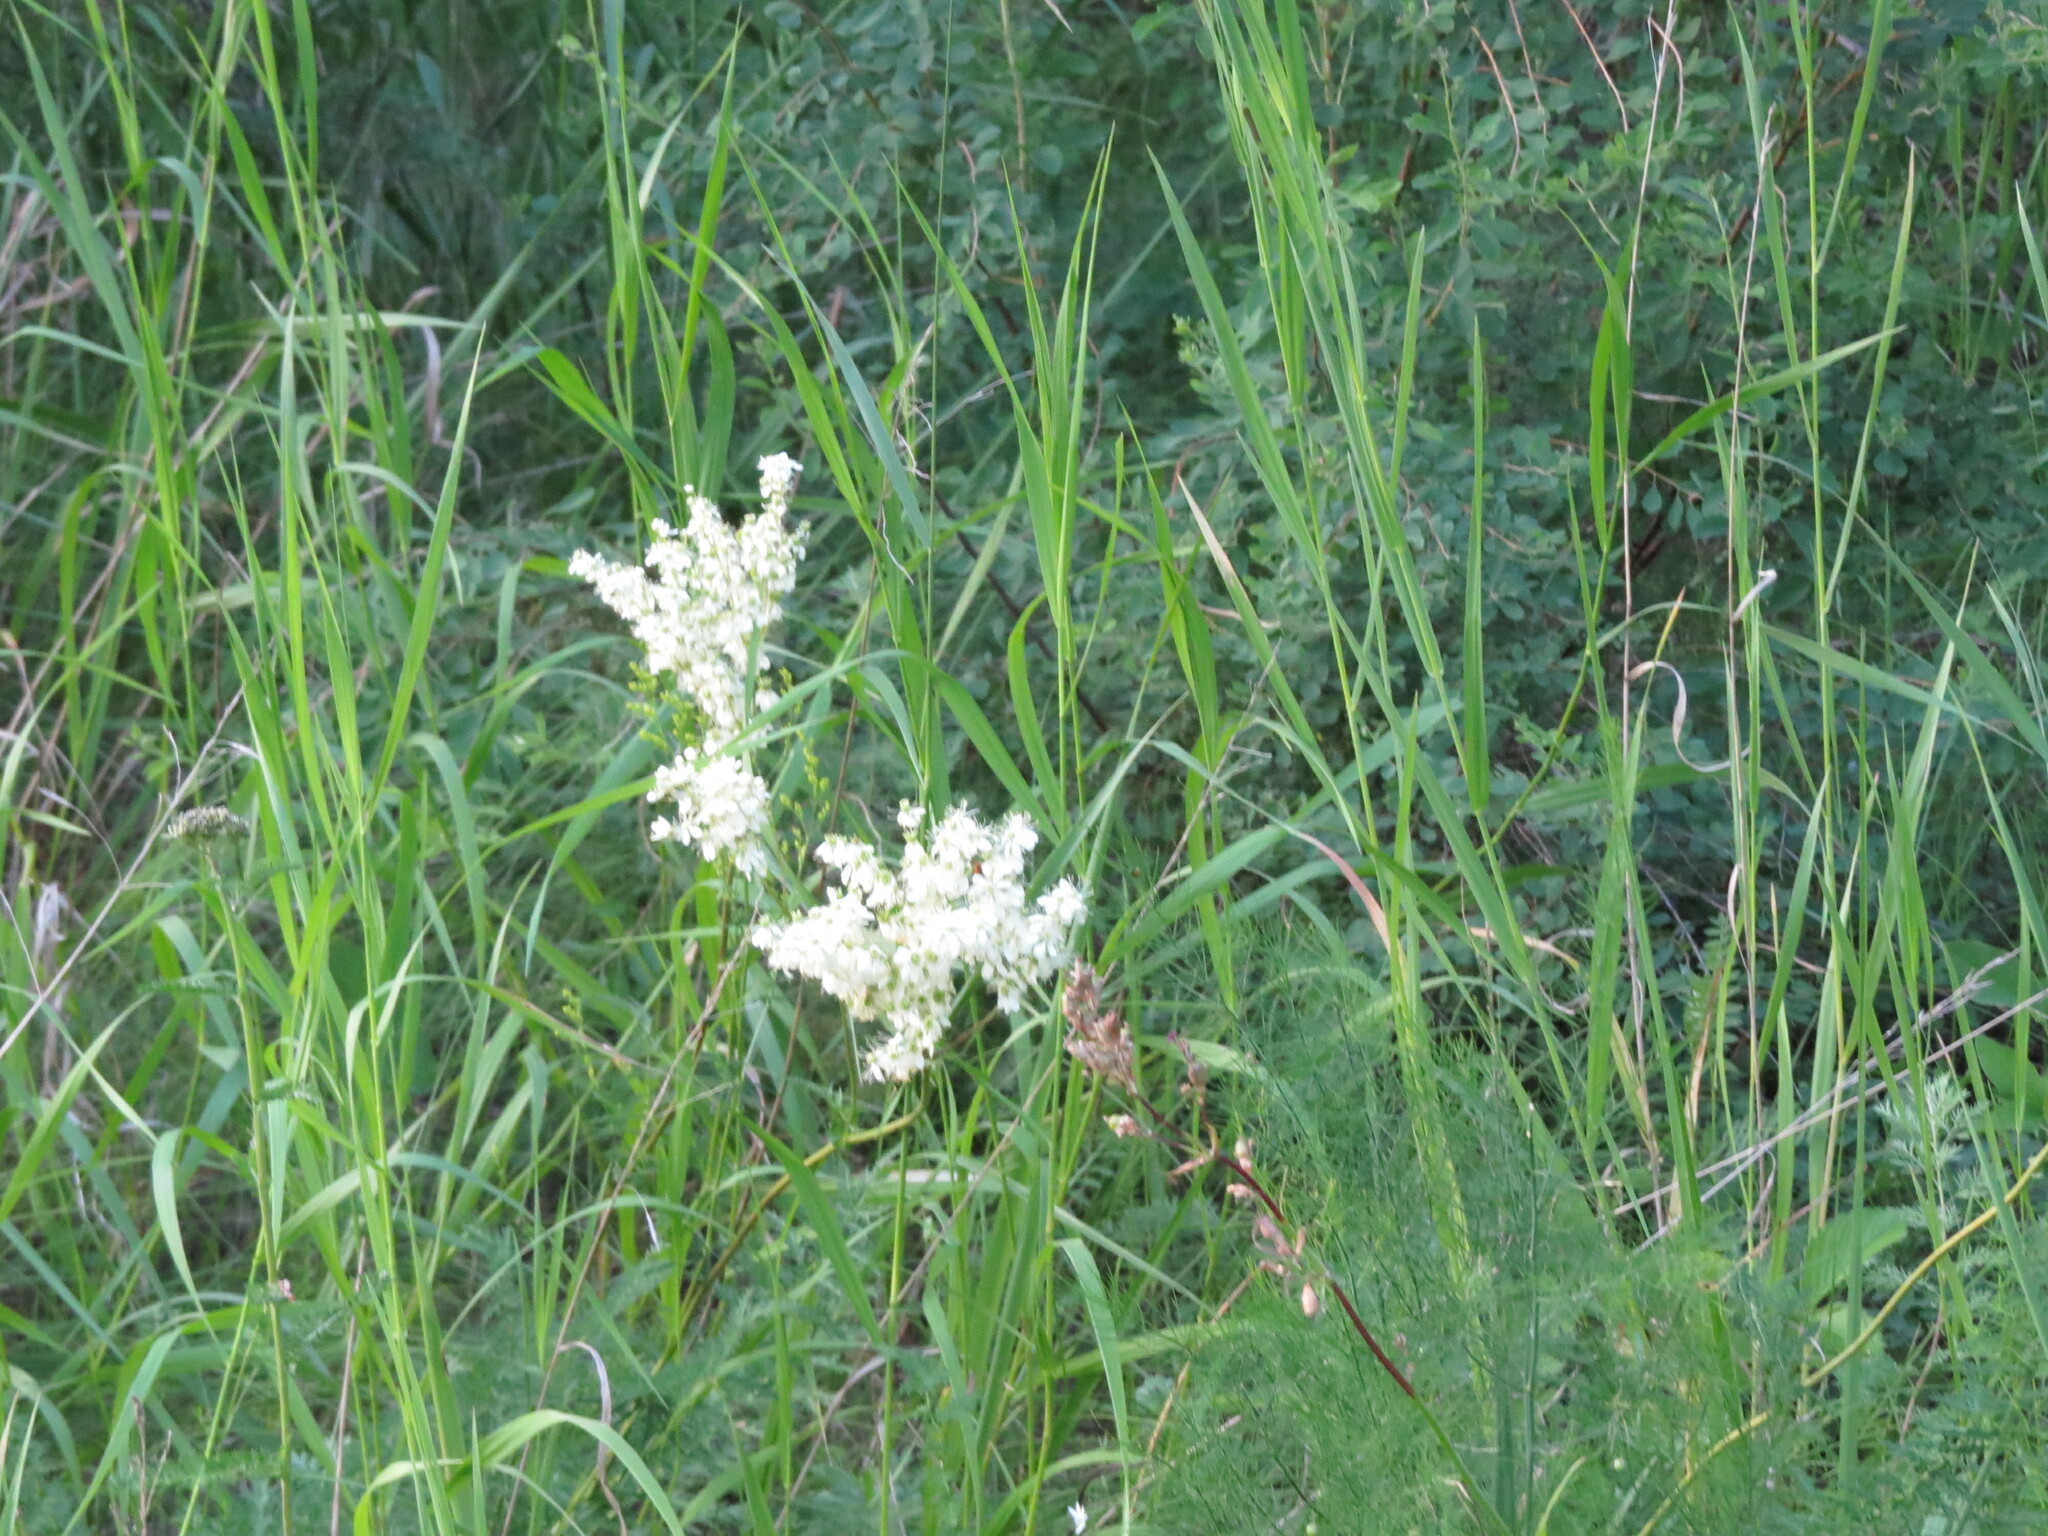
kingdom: Plantae
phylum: Tracheophyta
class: Magnoliopsida
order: Rosales
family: Rosaceae
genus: Filipendula
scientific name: Filipendula vulgaris
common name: Dropwort
